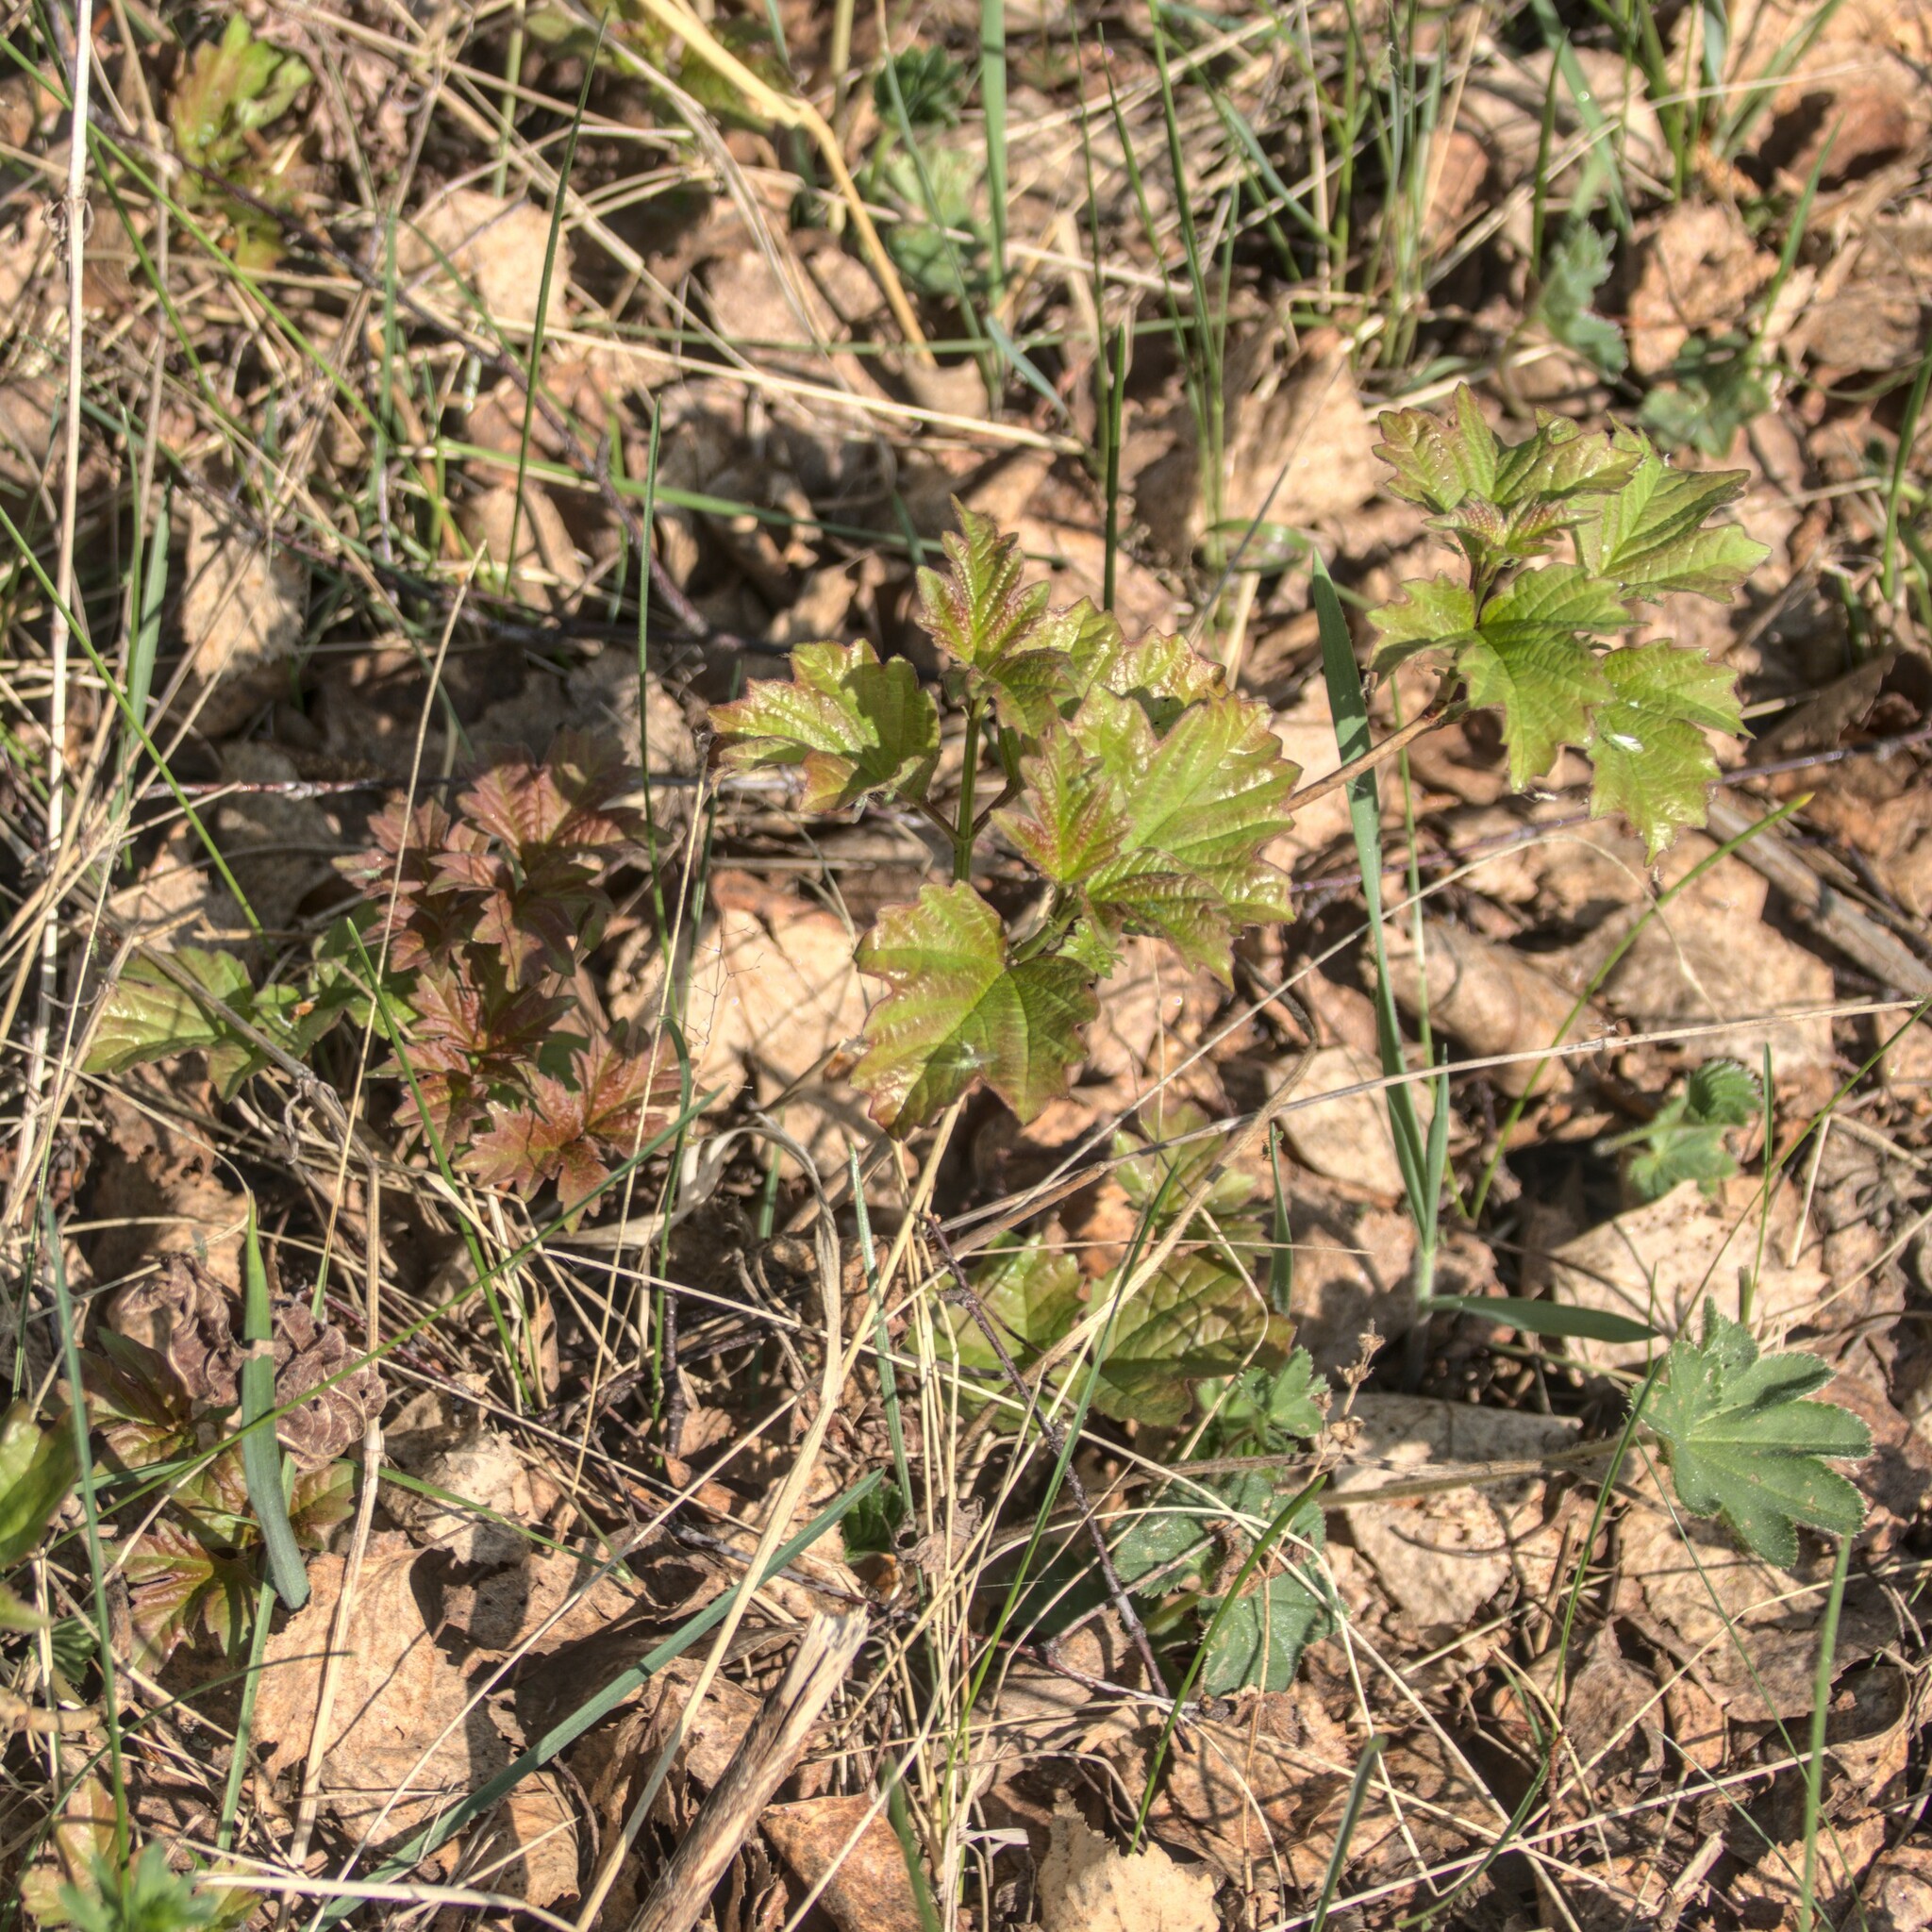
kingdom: Plantae
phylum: Tracheophyta
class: Magnoliopsida
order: Dipsacales
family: Viburnaceae
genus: Viburnum
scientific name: Viburnum opulus
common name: Guelder-rose
